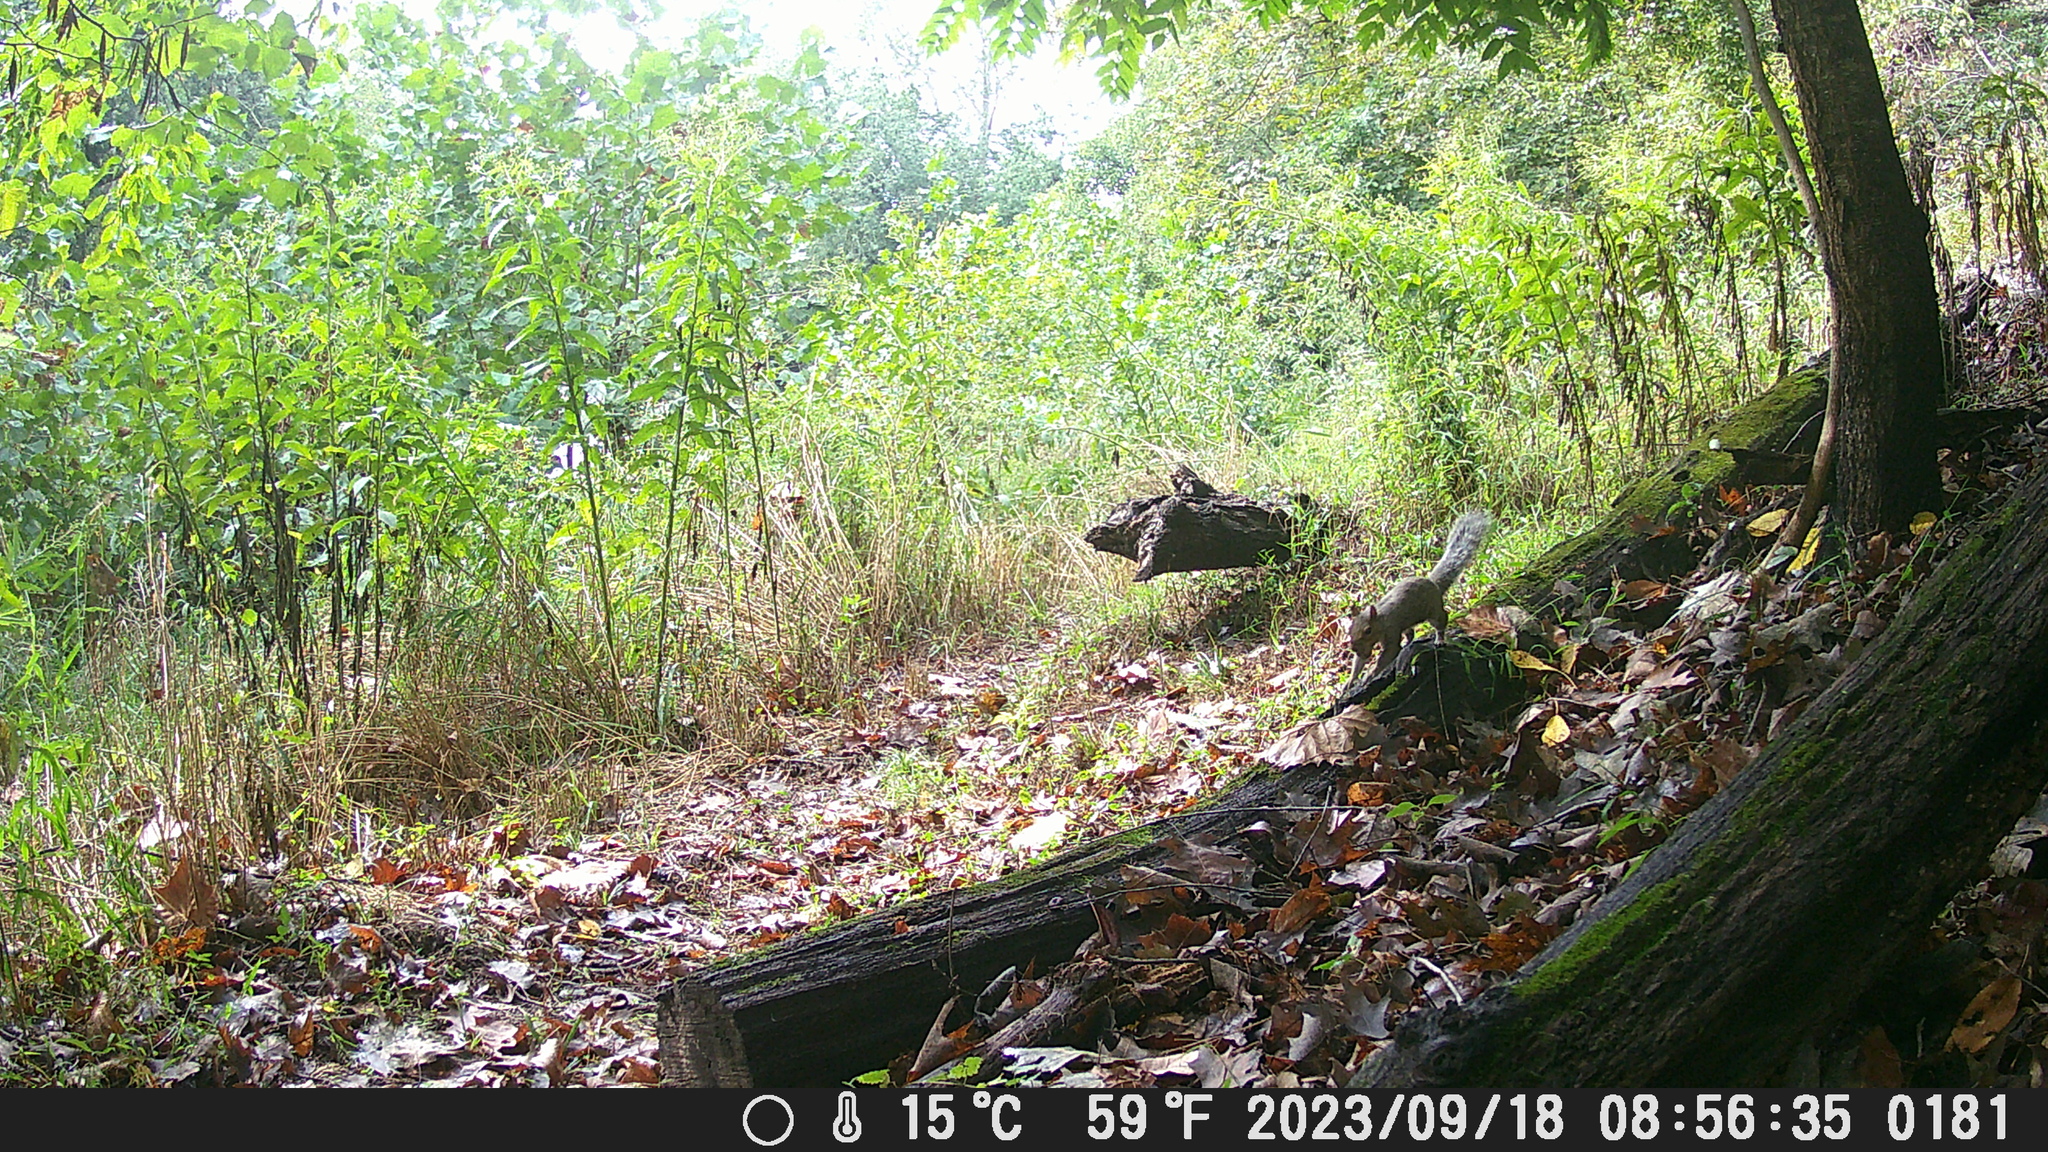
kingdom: Animalia
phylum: Chordata
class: Mammalia
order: Rodentia
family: Sciuridae
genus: Sciurus
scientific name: Sciurus carolinensis
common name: Eastern gray squirrel
